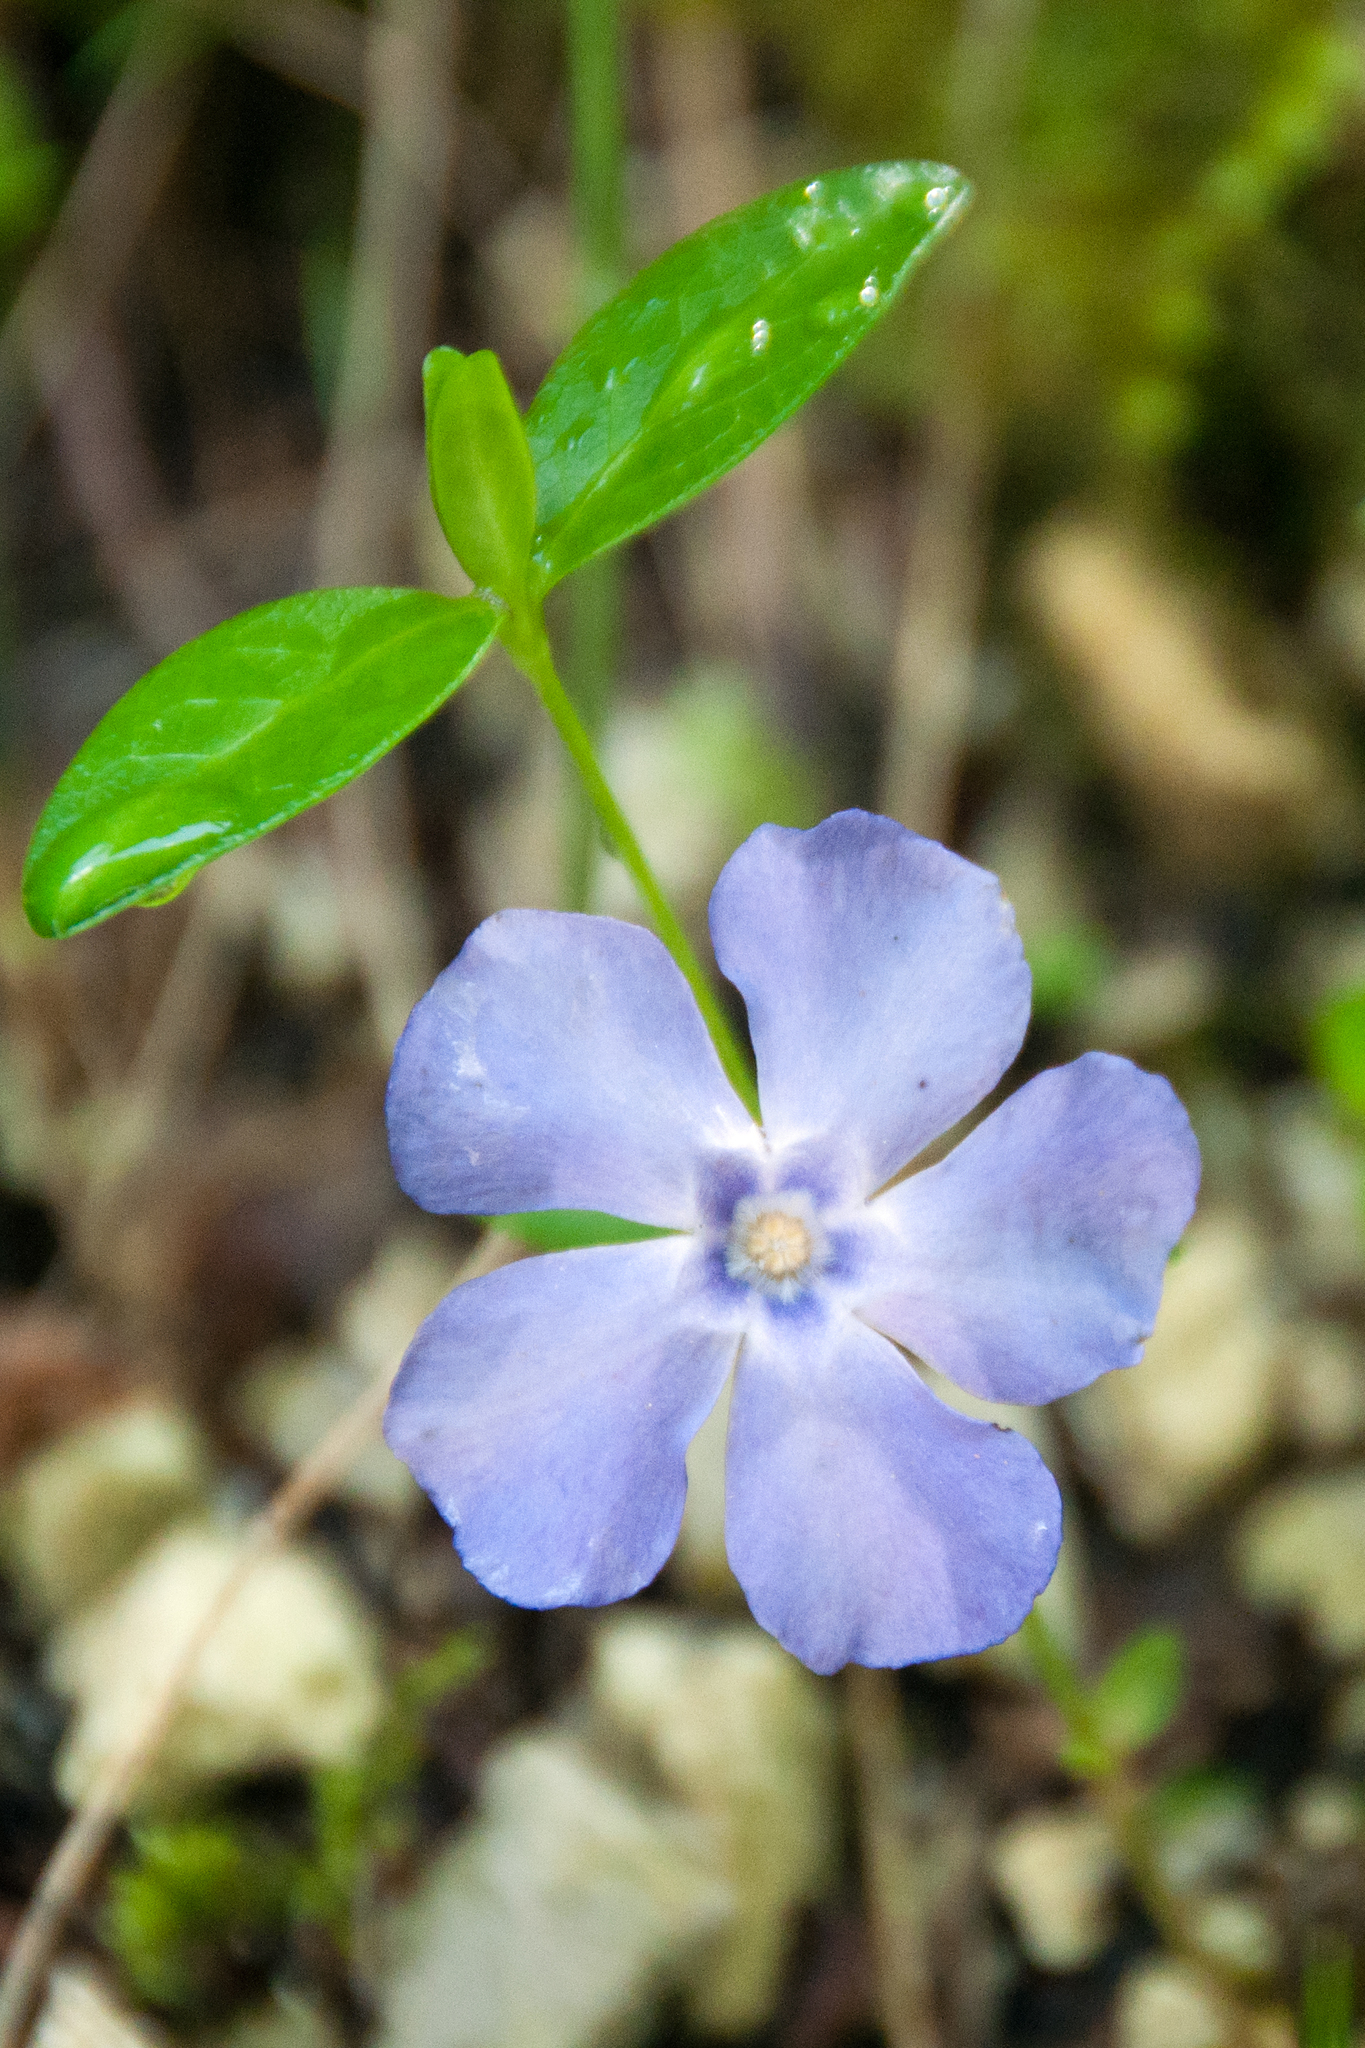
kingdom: Plantae
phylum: Tracheophyta
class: Magnoliopsida
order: Gentianales
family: Apocynaceae
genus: Vinca
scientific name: Vinca minor
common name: Lesser periwinkle
